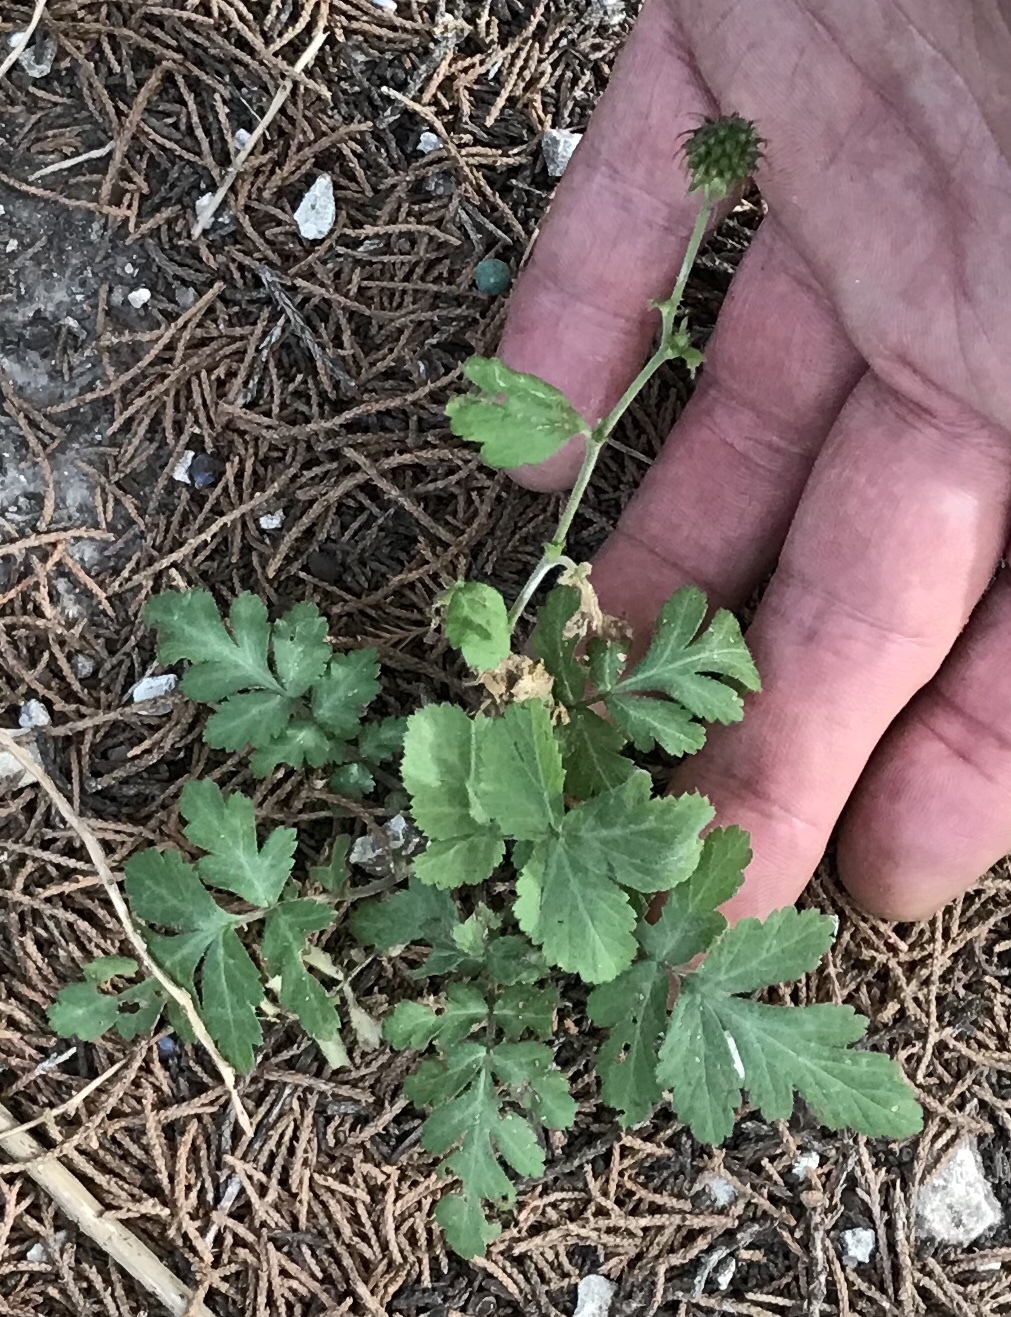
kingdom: Plantae
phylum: Tracheophyta
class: Magnoliopsida
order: Rosales
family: Rosaceae
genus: Geum
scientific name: Geum canadense
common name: White avens
